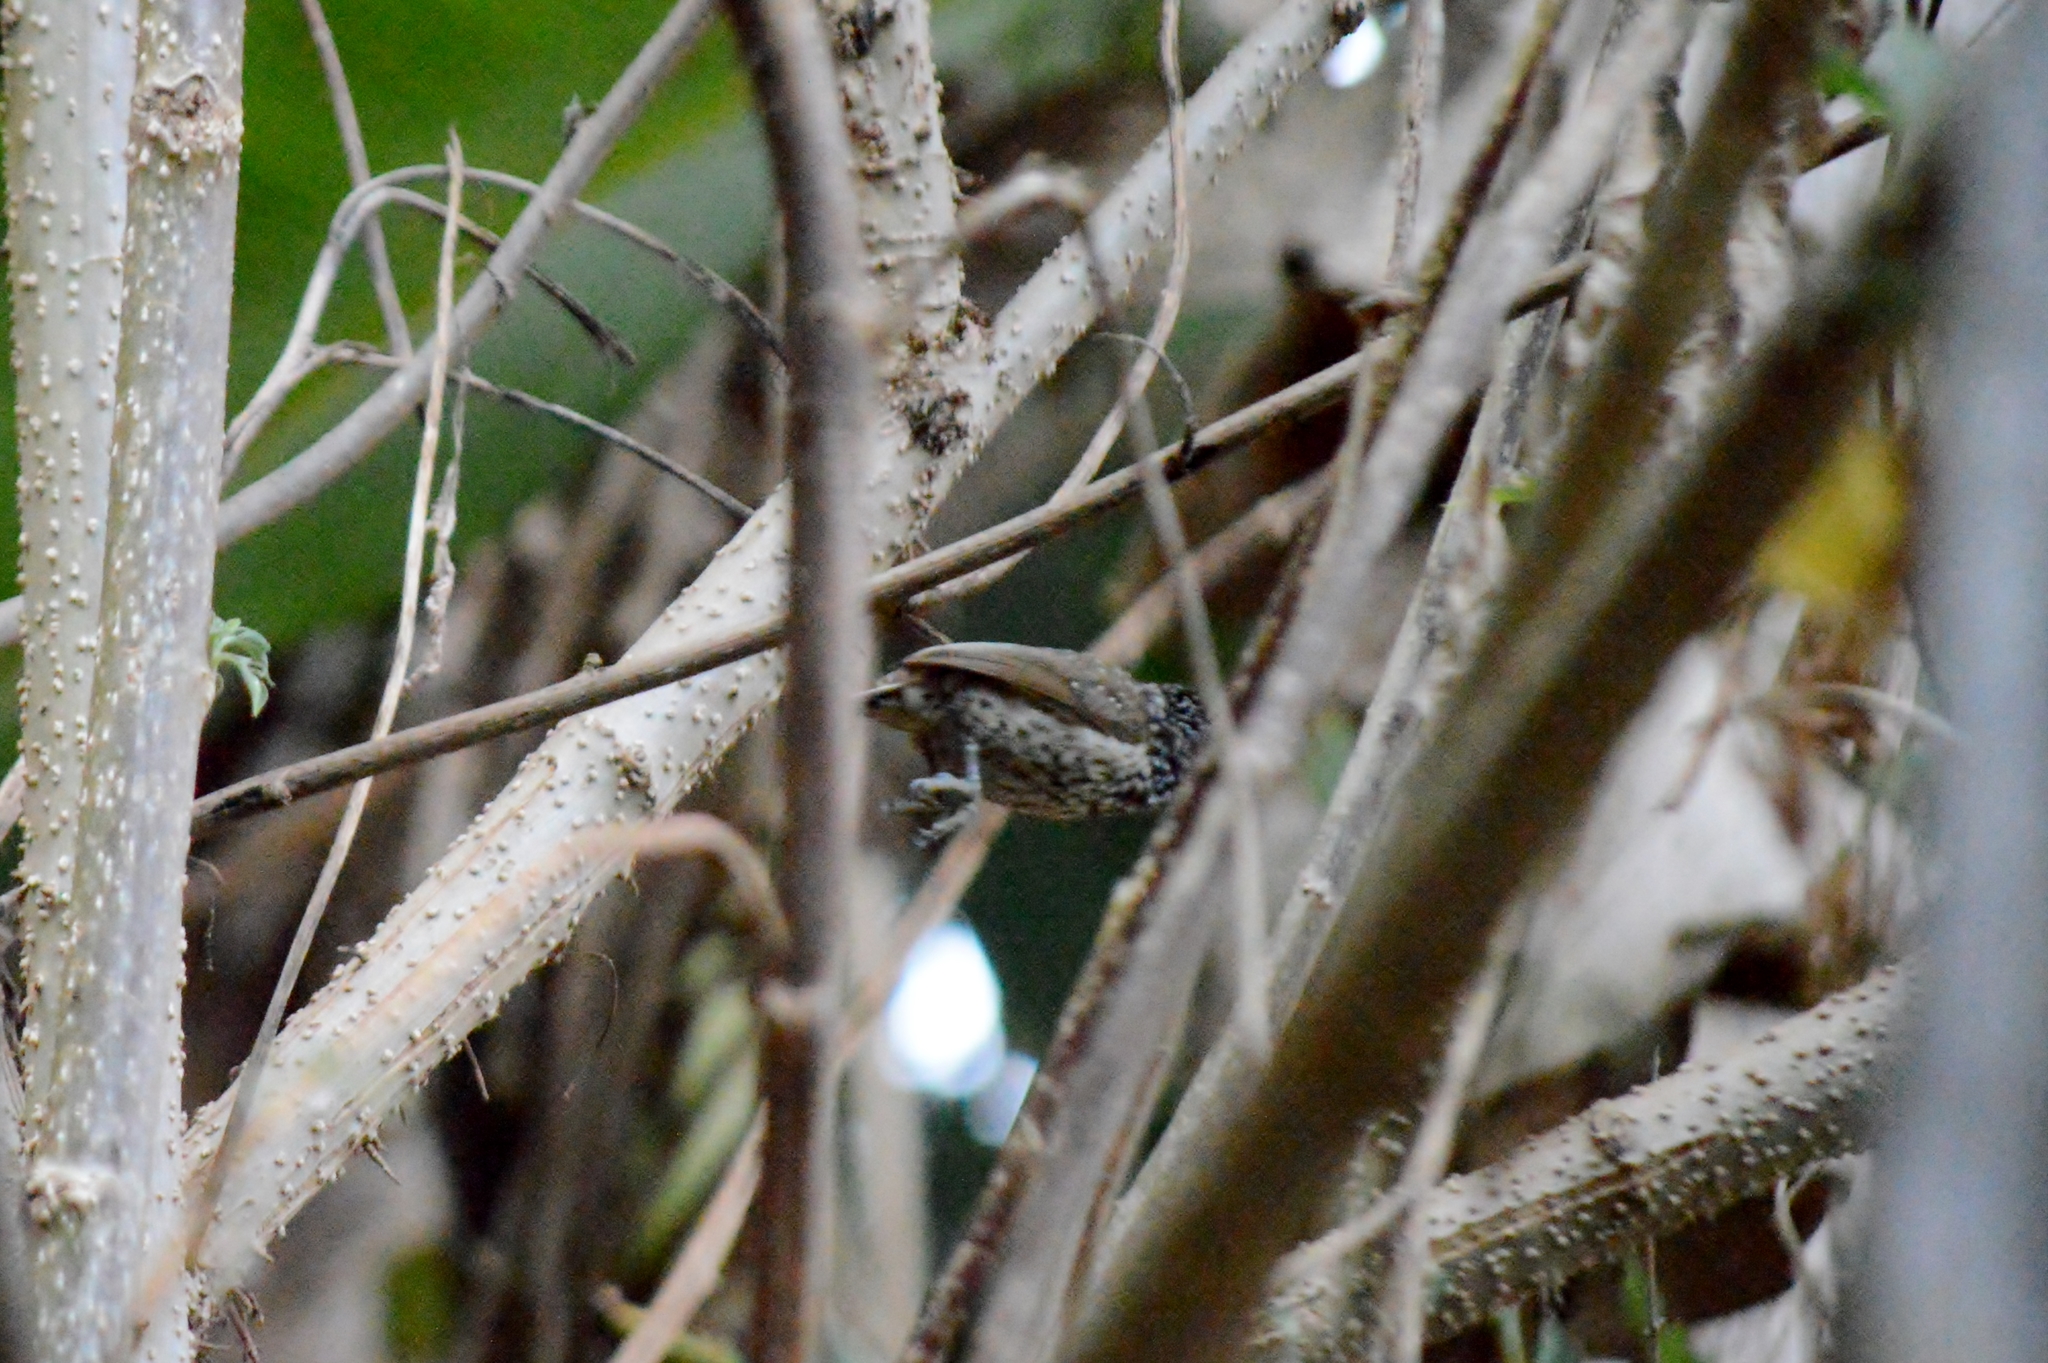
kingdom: Animalia
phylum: Chordata
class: Aves
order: Piciformes
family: Picidae
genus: Picumnus
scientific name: Picumnus albosquamatus
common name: White-wedged piculet
